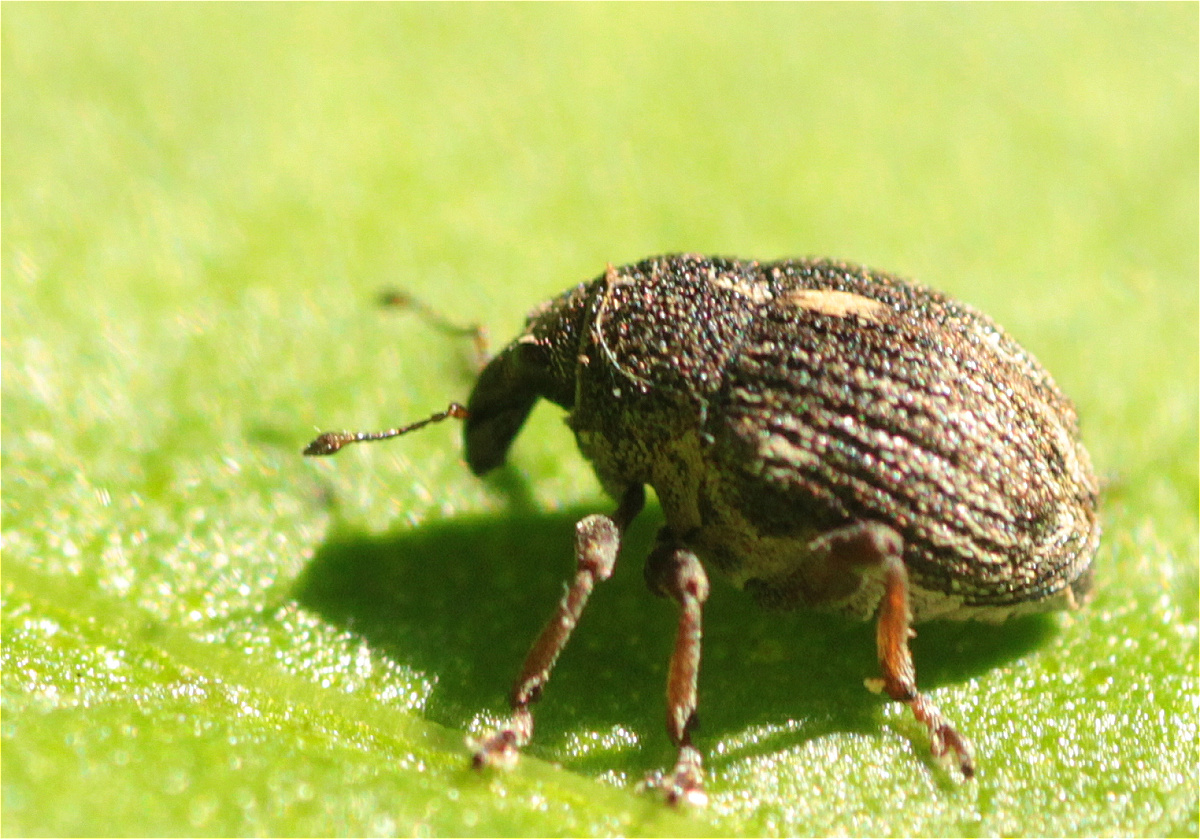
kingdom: Animalia
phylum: Arthropoda
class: Insecta
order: Coleoptera
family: Curculionidae
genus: Rhinoncus
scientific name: Rhinoncus leucostigma
